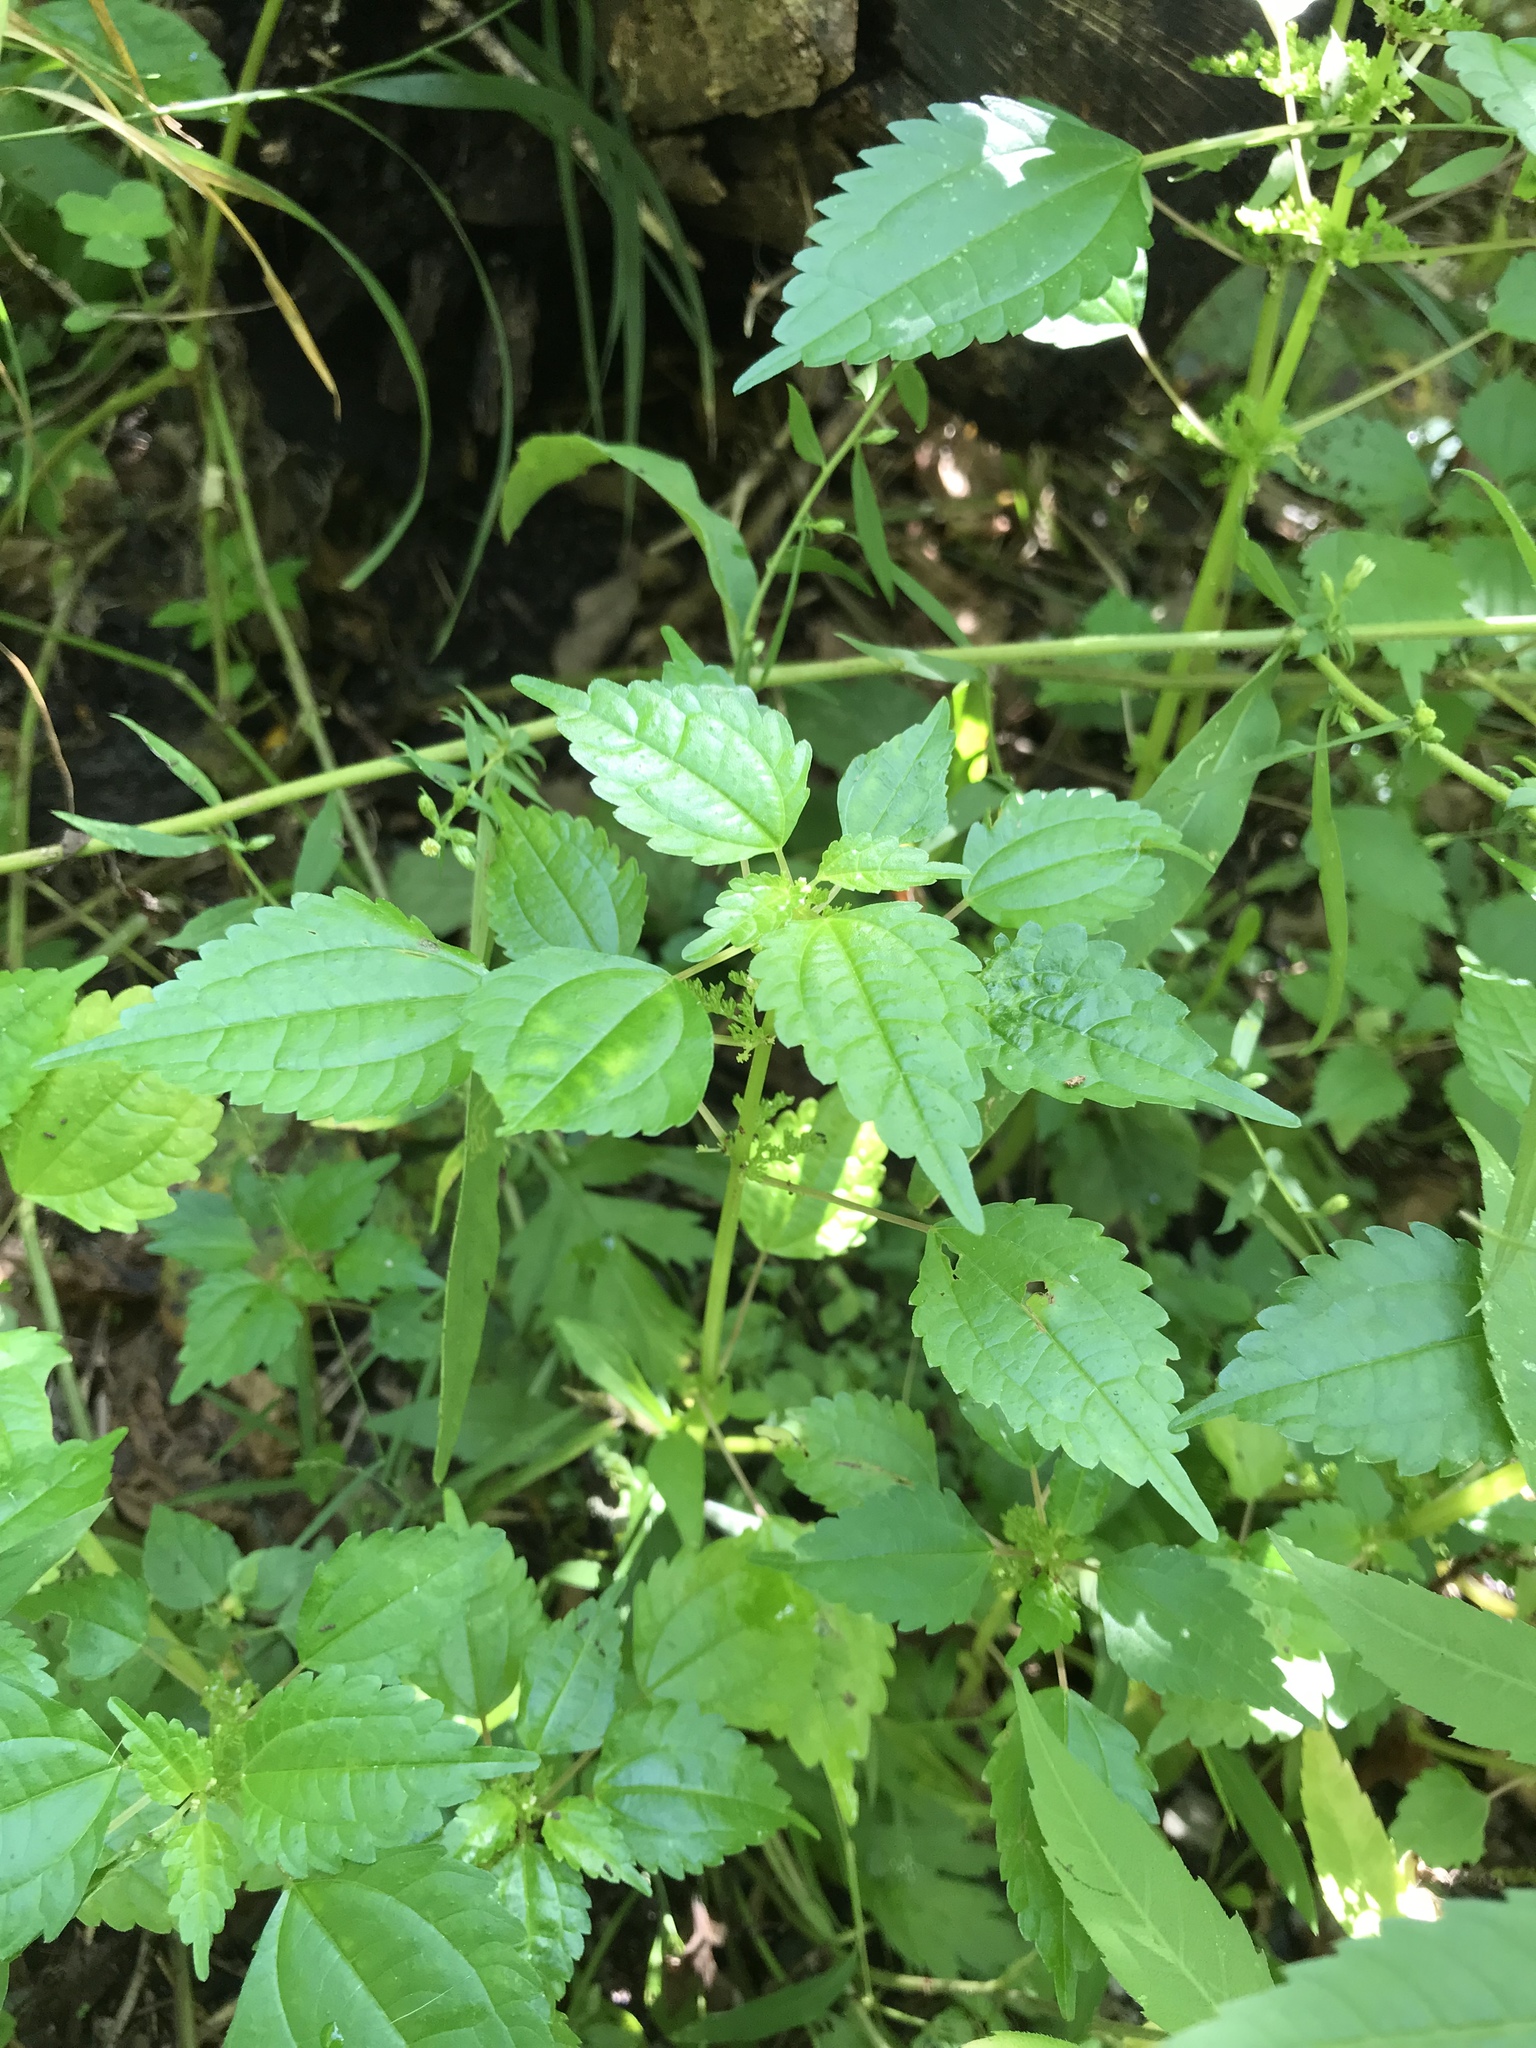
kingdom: Plantae
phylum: Tracheophyta
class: Magnoliopsida
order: Rosales
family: Urticaceae
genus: Pilea
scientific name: Pilea pumila
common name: Clearweed
